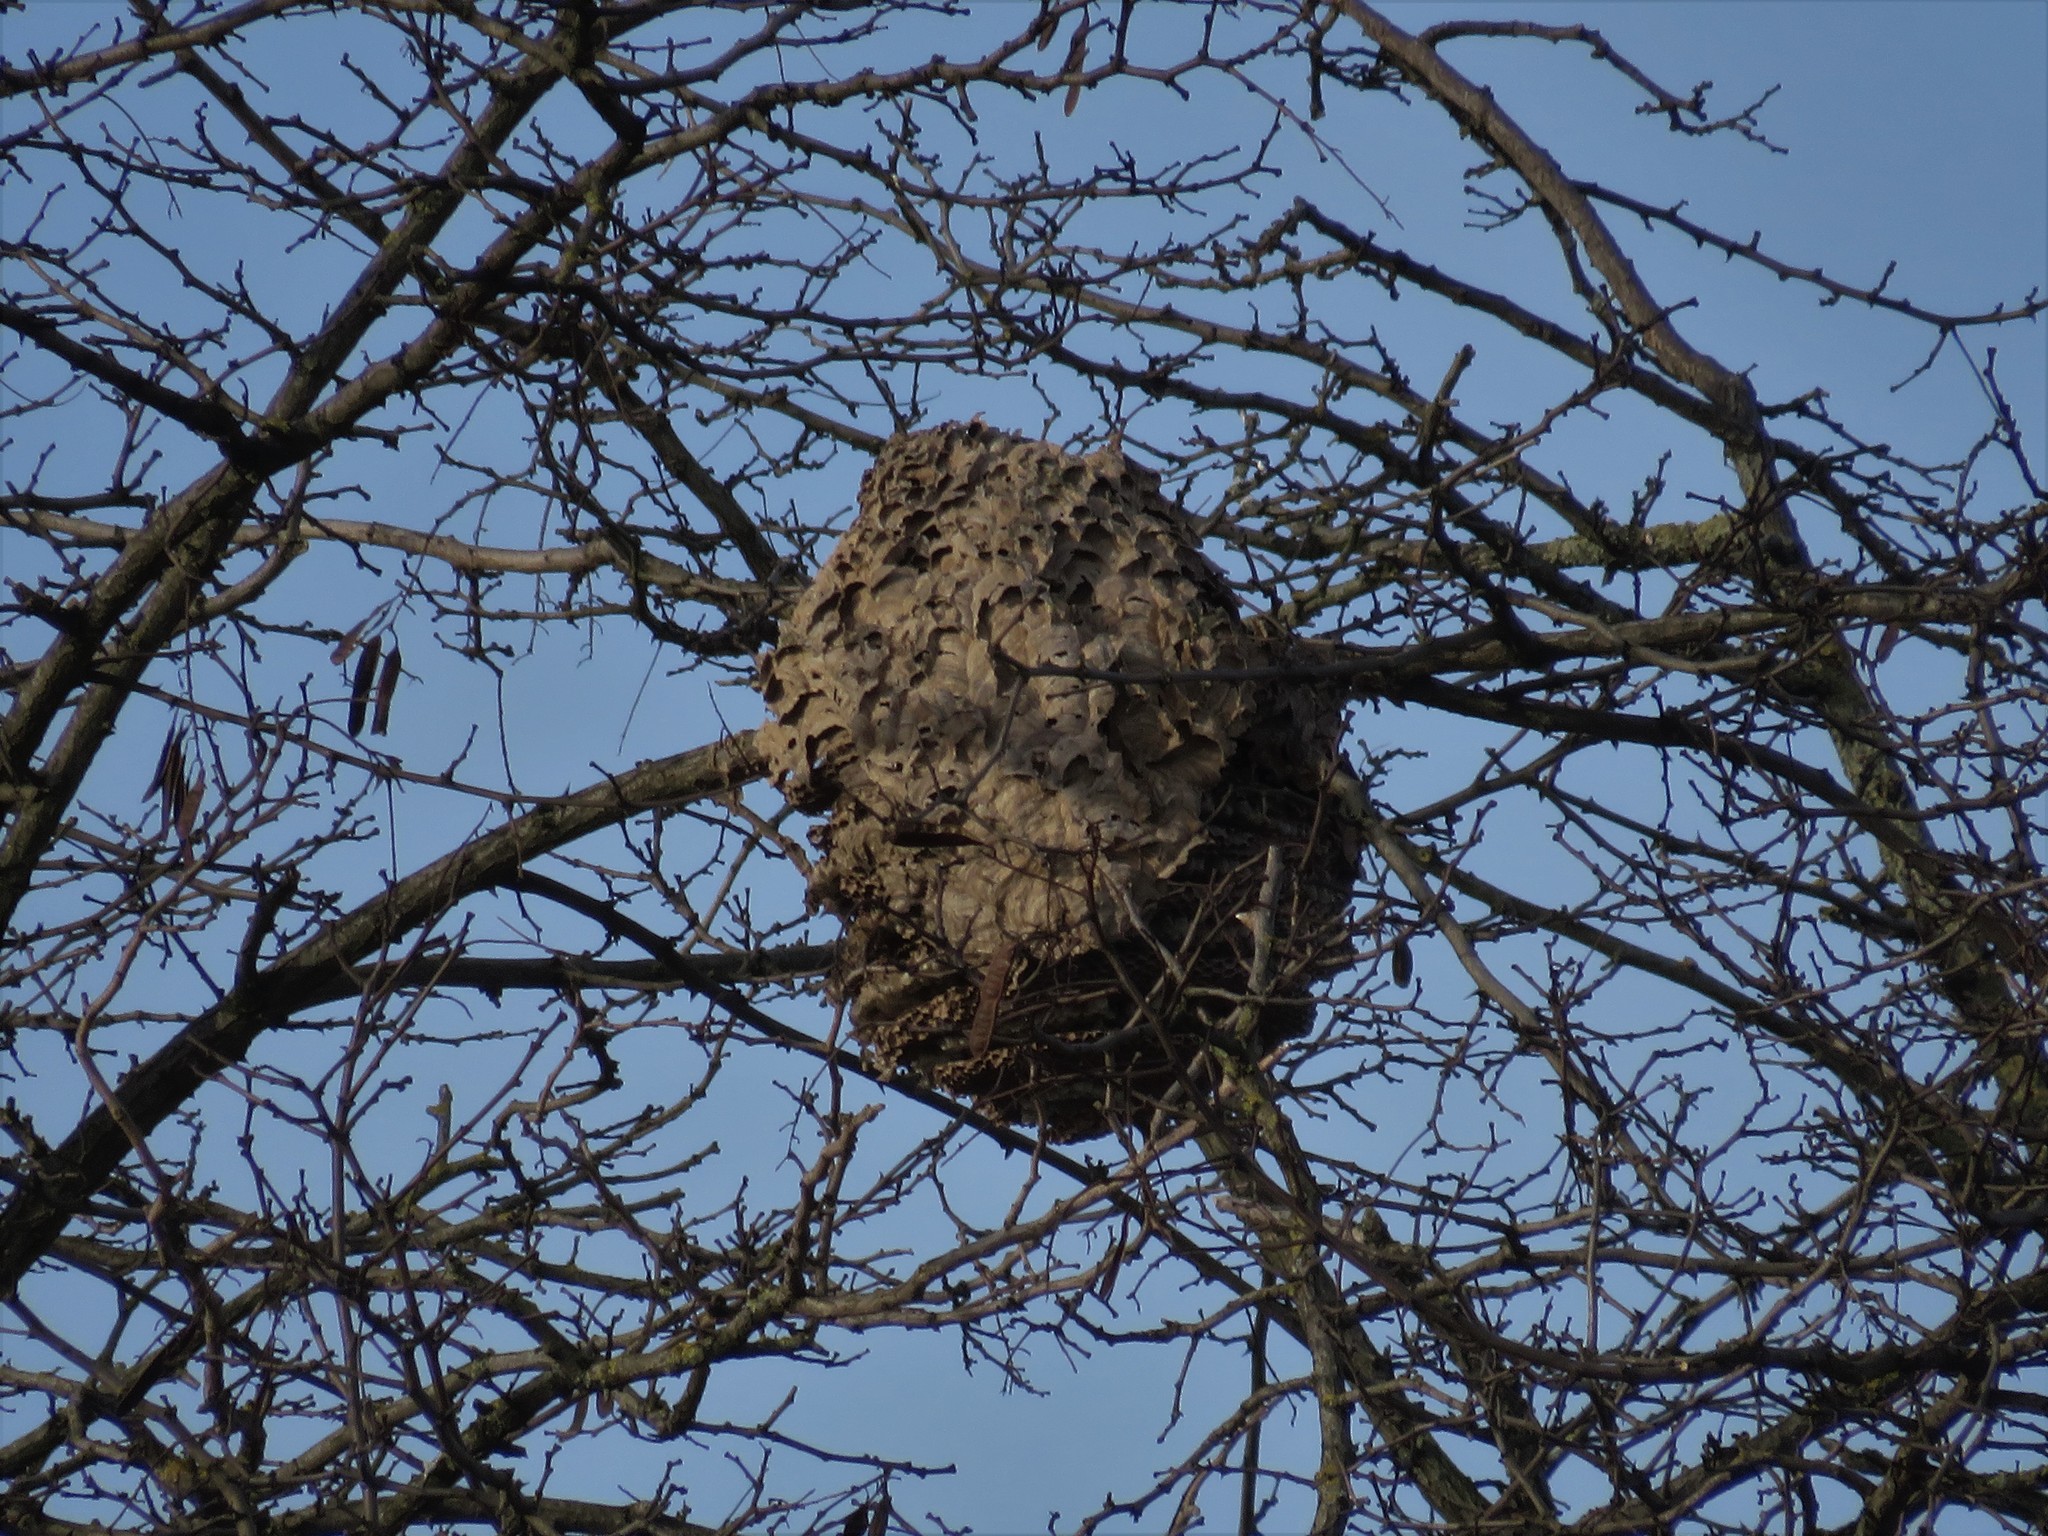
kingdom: Animalia
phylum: Arthropoda
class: Insecta
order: Hymenoptera
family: Vespidae
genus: Vespa
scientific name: Vespa velutina
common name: Asian hornet
